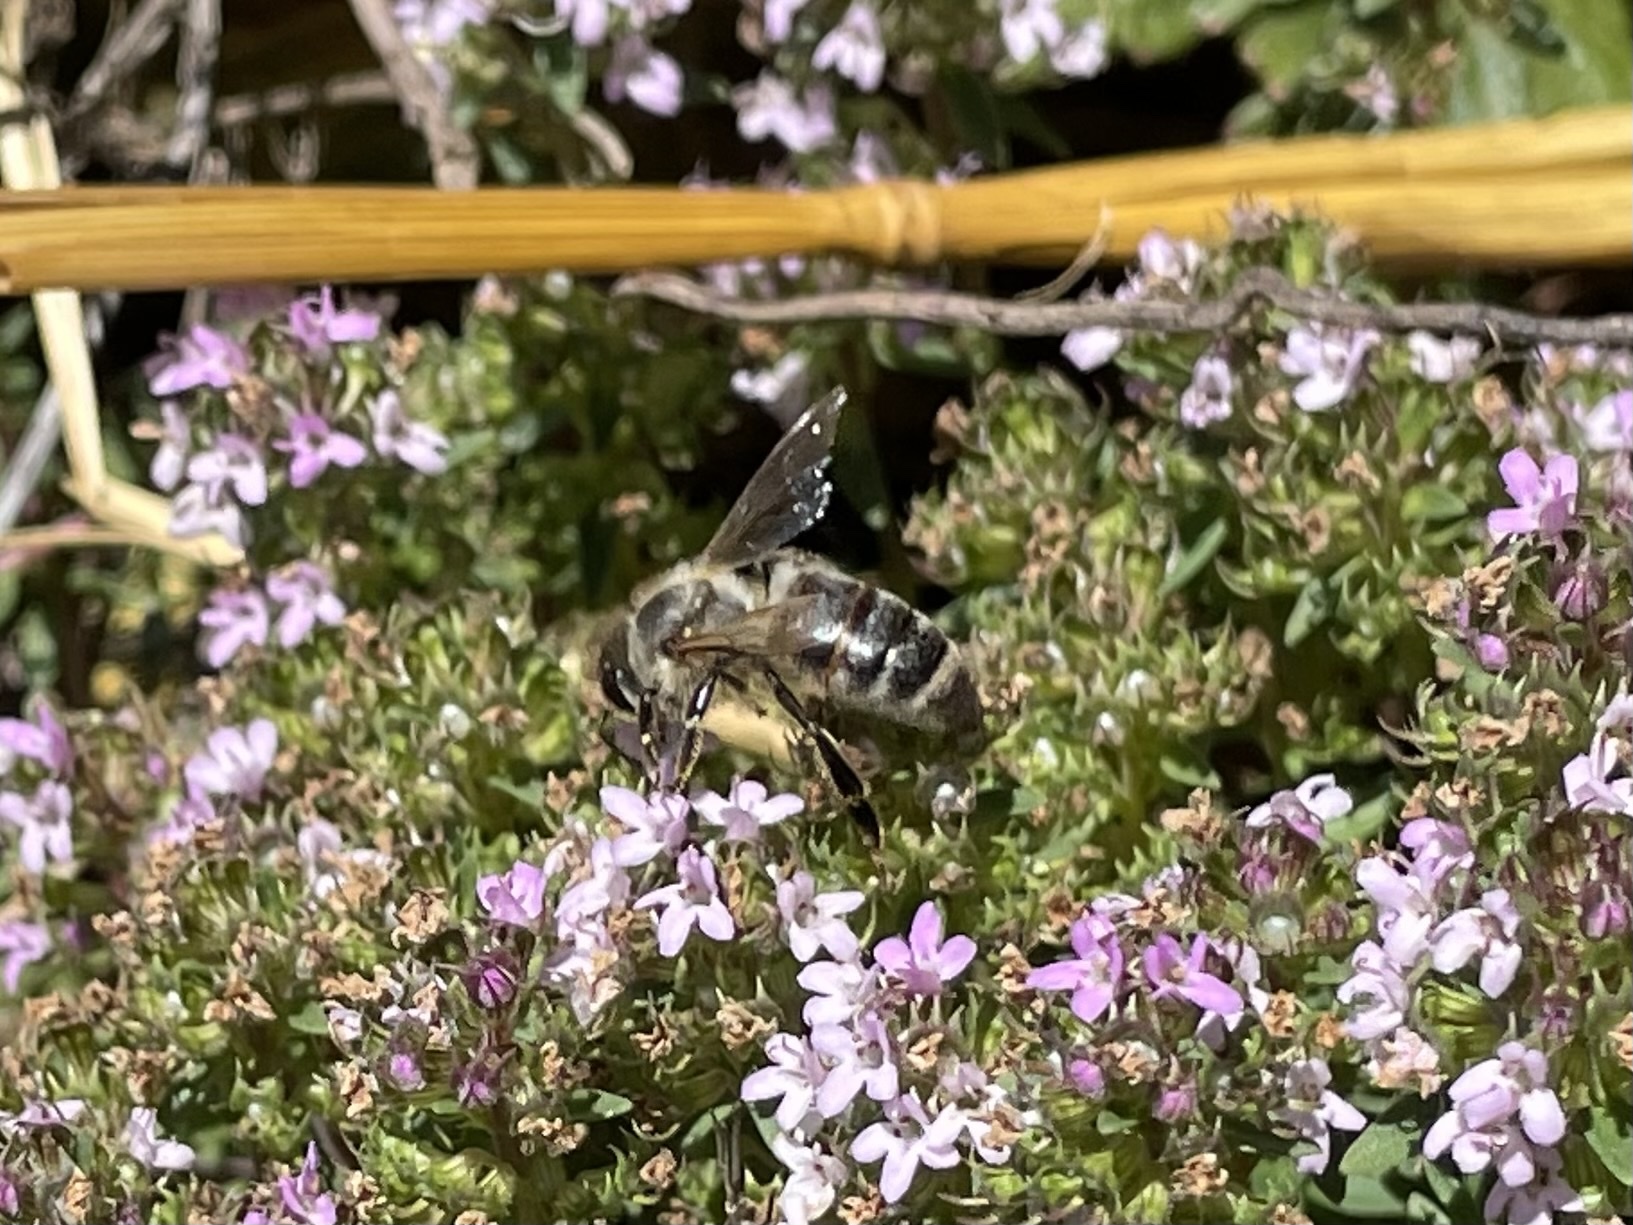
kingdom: Animalia
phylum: Arthropoda
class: Insecta
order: Hymenoptera
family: Apidae
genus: Apis
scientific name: Apis mellifera
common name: Honey bee
